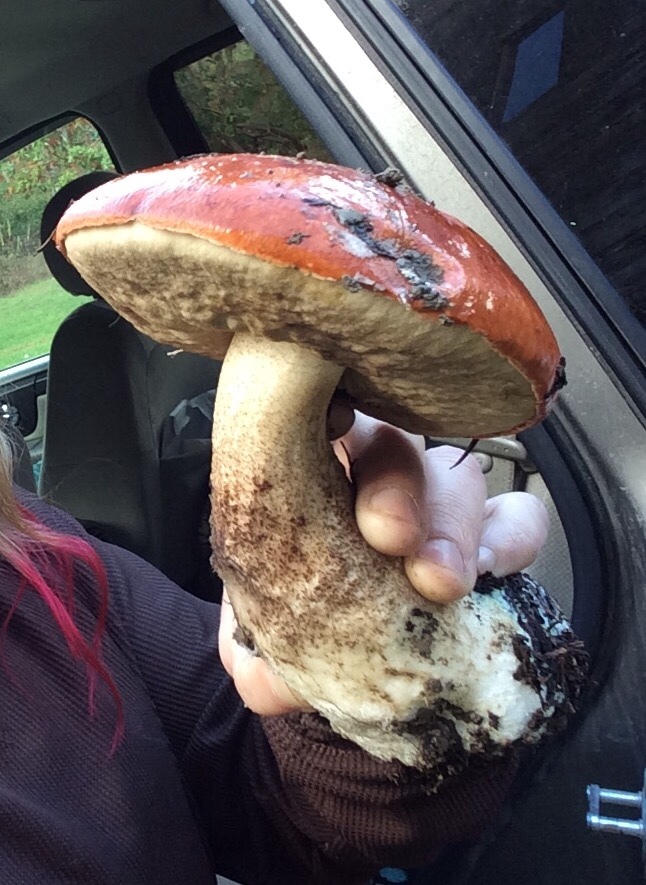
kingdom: Fungi
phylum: Basidiomycota
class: Agaricomycetes
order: Boletales
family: Boletaceae
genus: Leccinum
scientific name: Leccinum manzanitae
